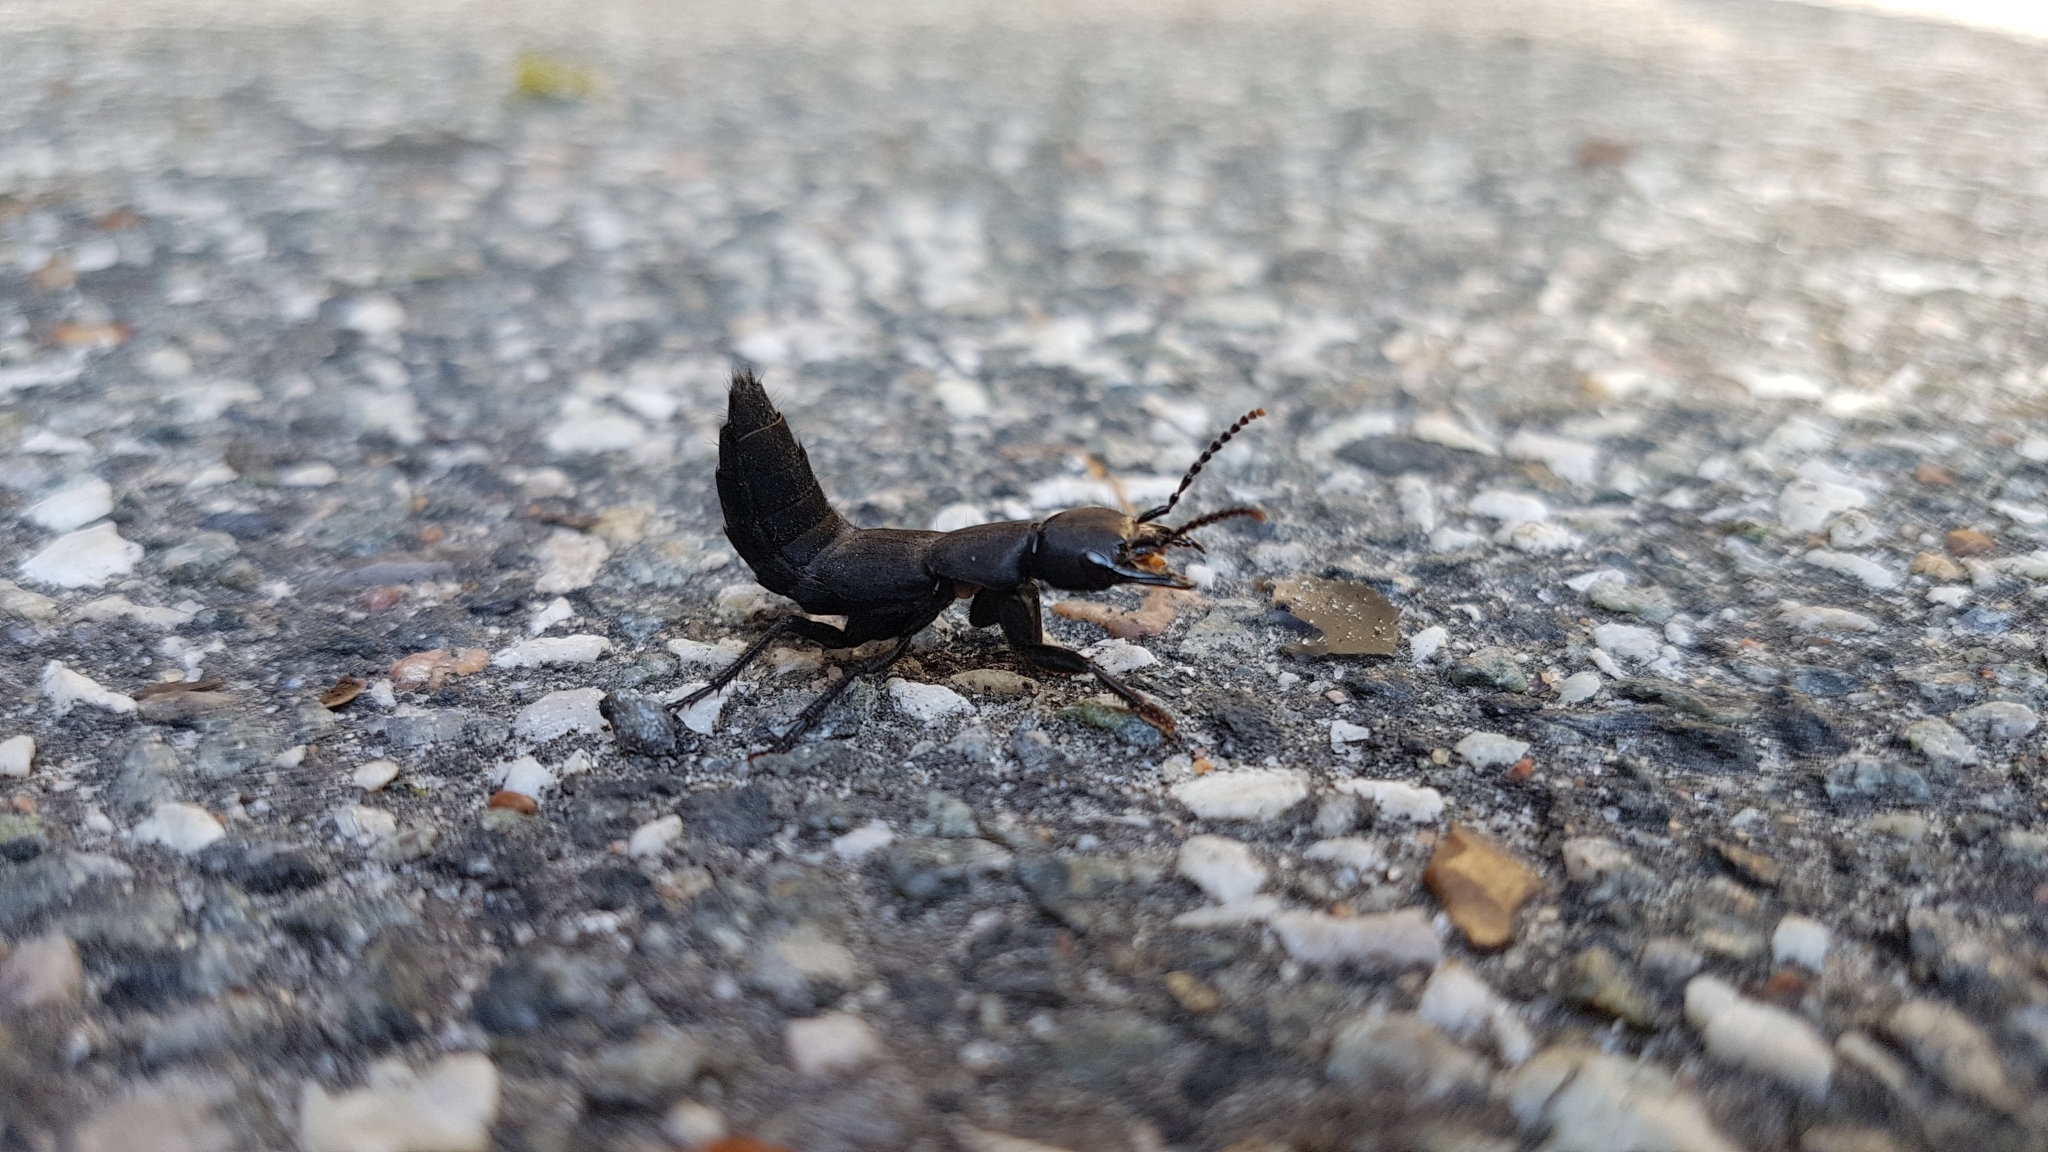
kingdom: Animalia
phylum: Arthropoda
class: Insecta
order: Coleoptera
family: Staphylinidae
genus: Ocypus
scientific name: Ocypus olens
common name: Devil's coach-horse
